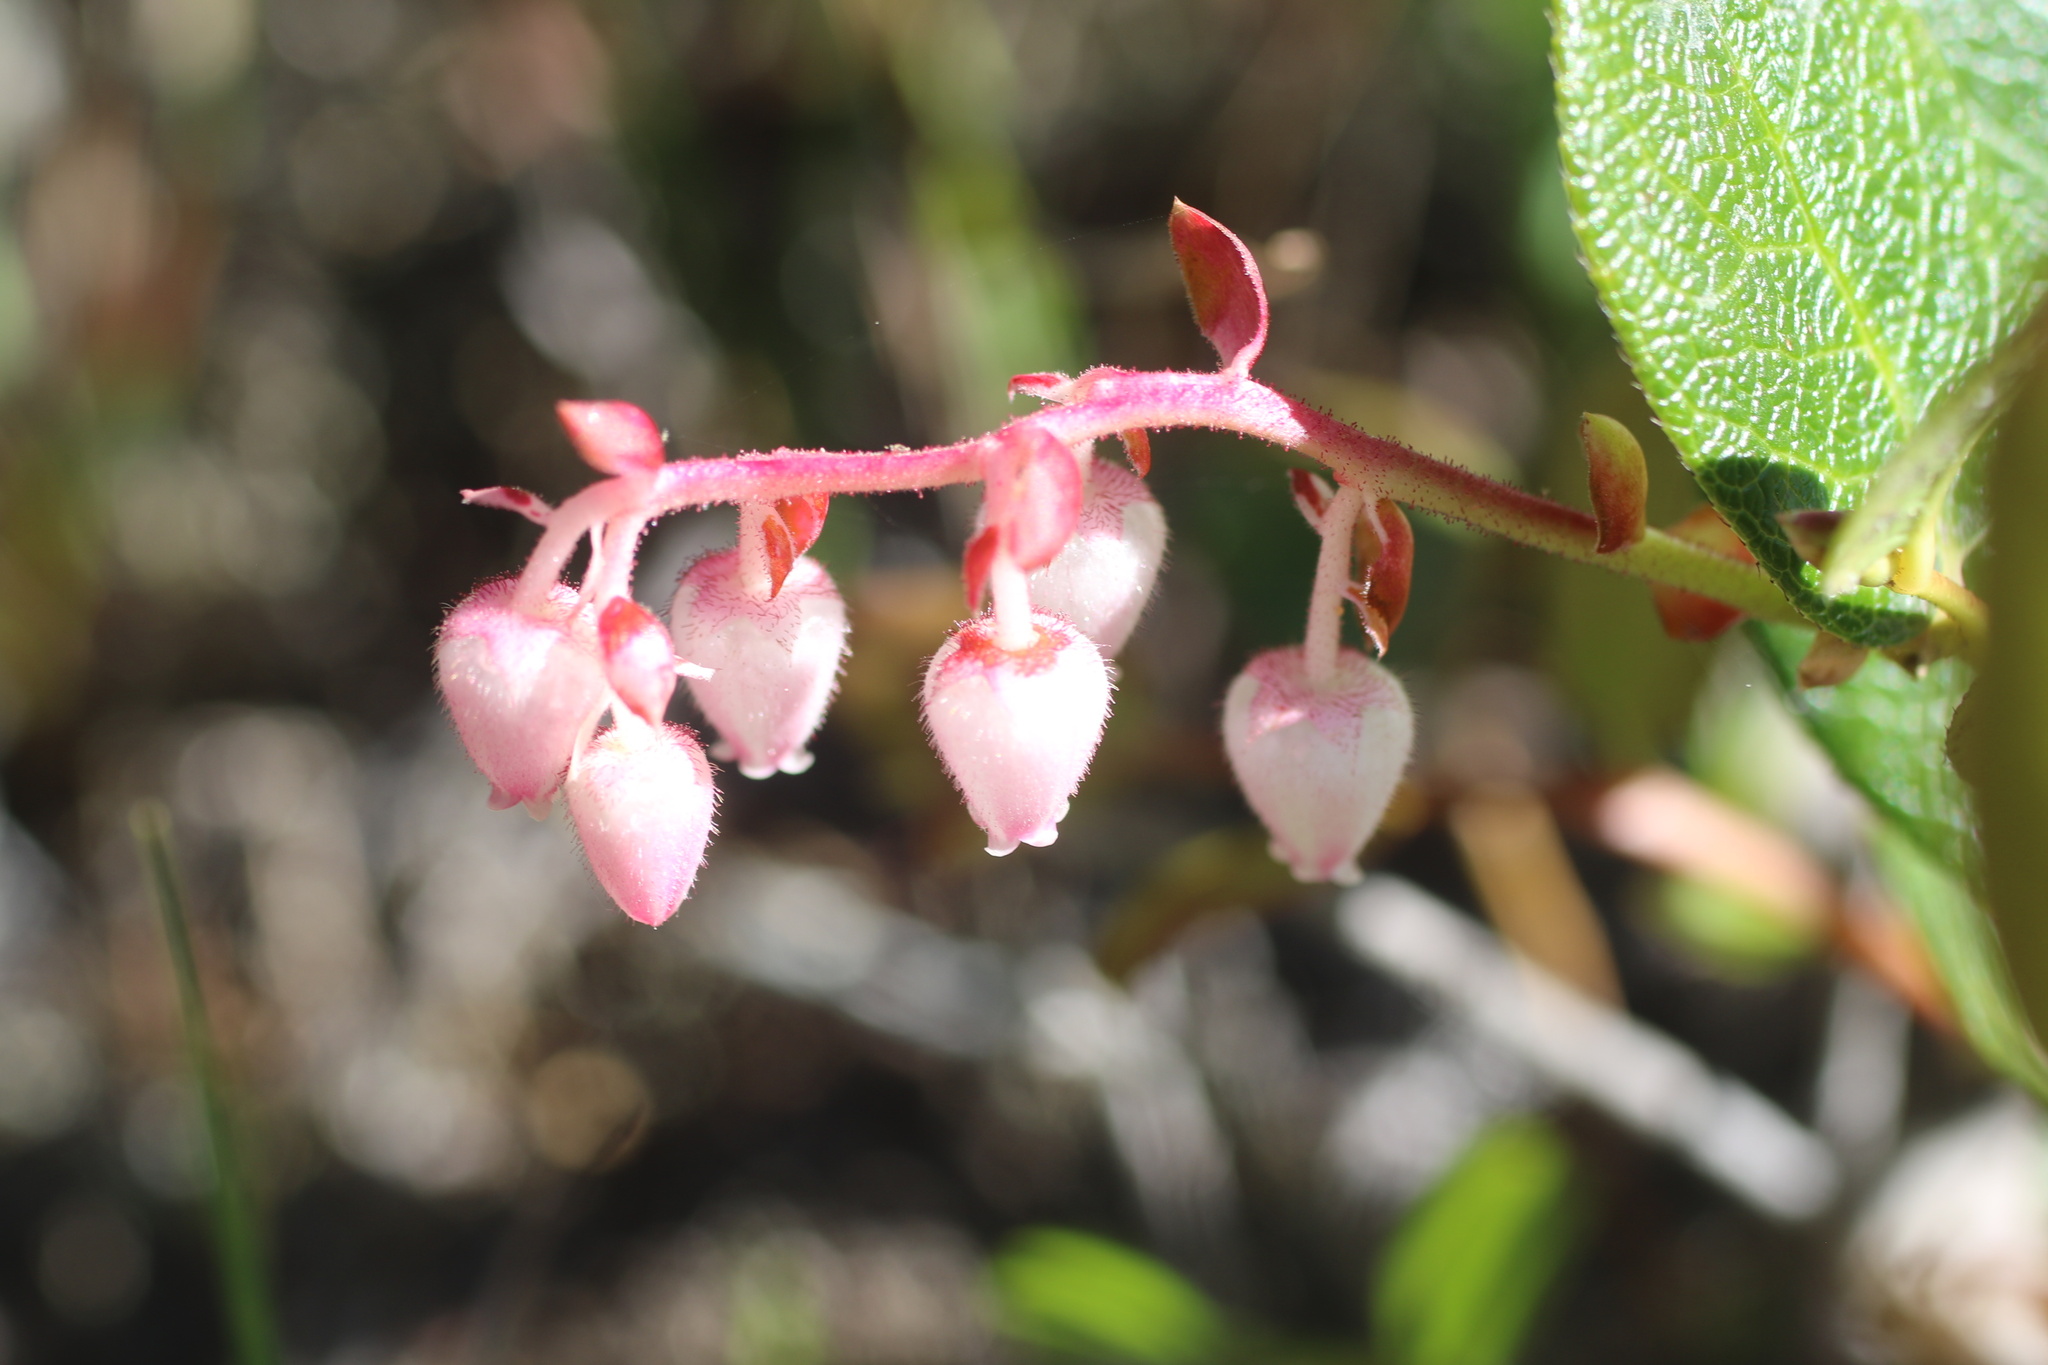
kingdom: Plantae
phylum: Tracheophyta
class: Magnoliopsida
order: Ericales
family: Ericaceae
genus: Gaultheria
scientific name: Gaultheria shallon
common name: Shallon
